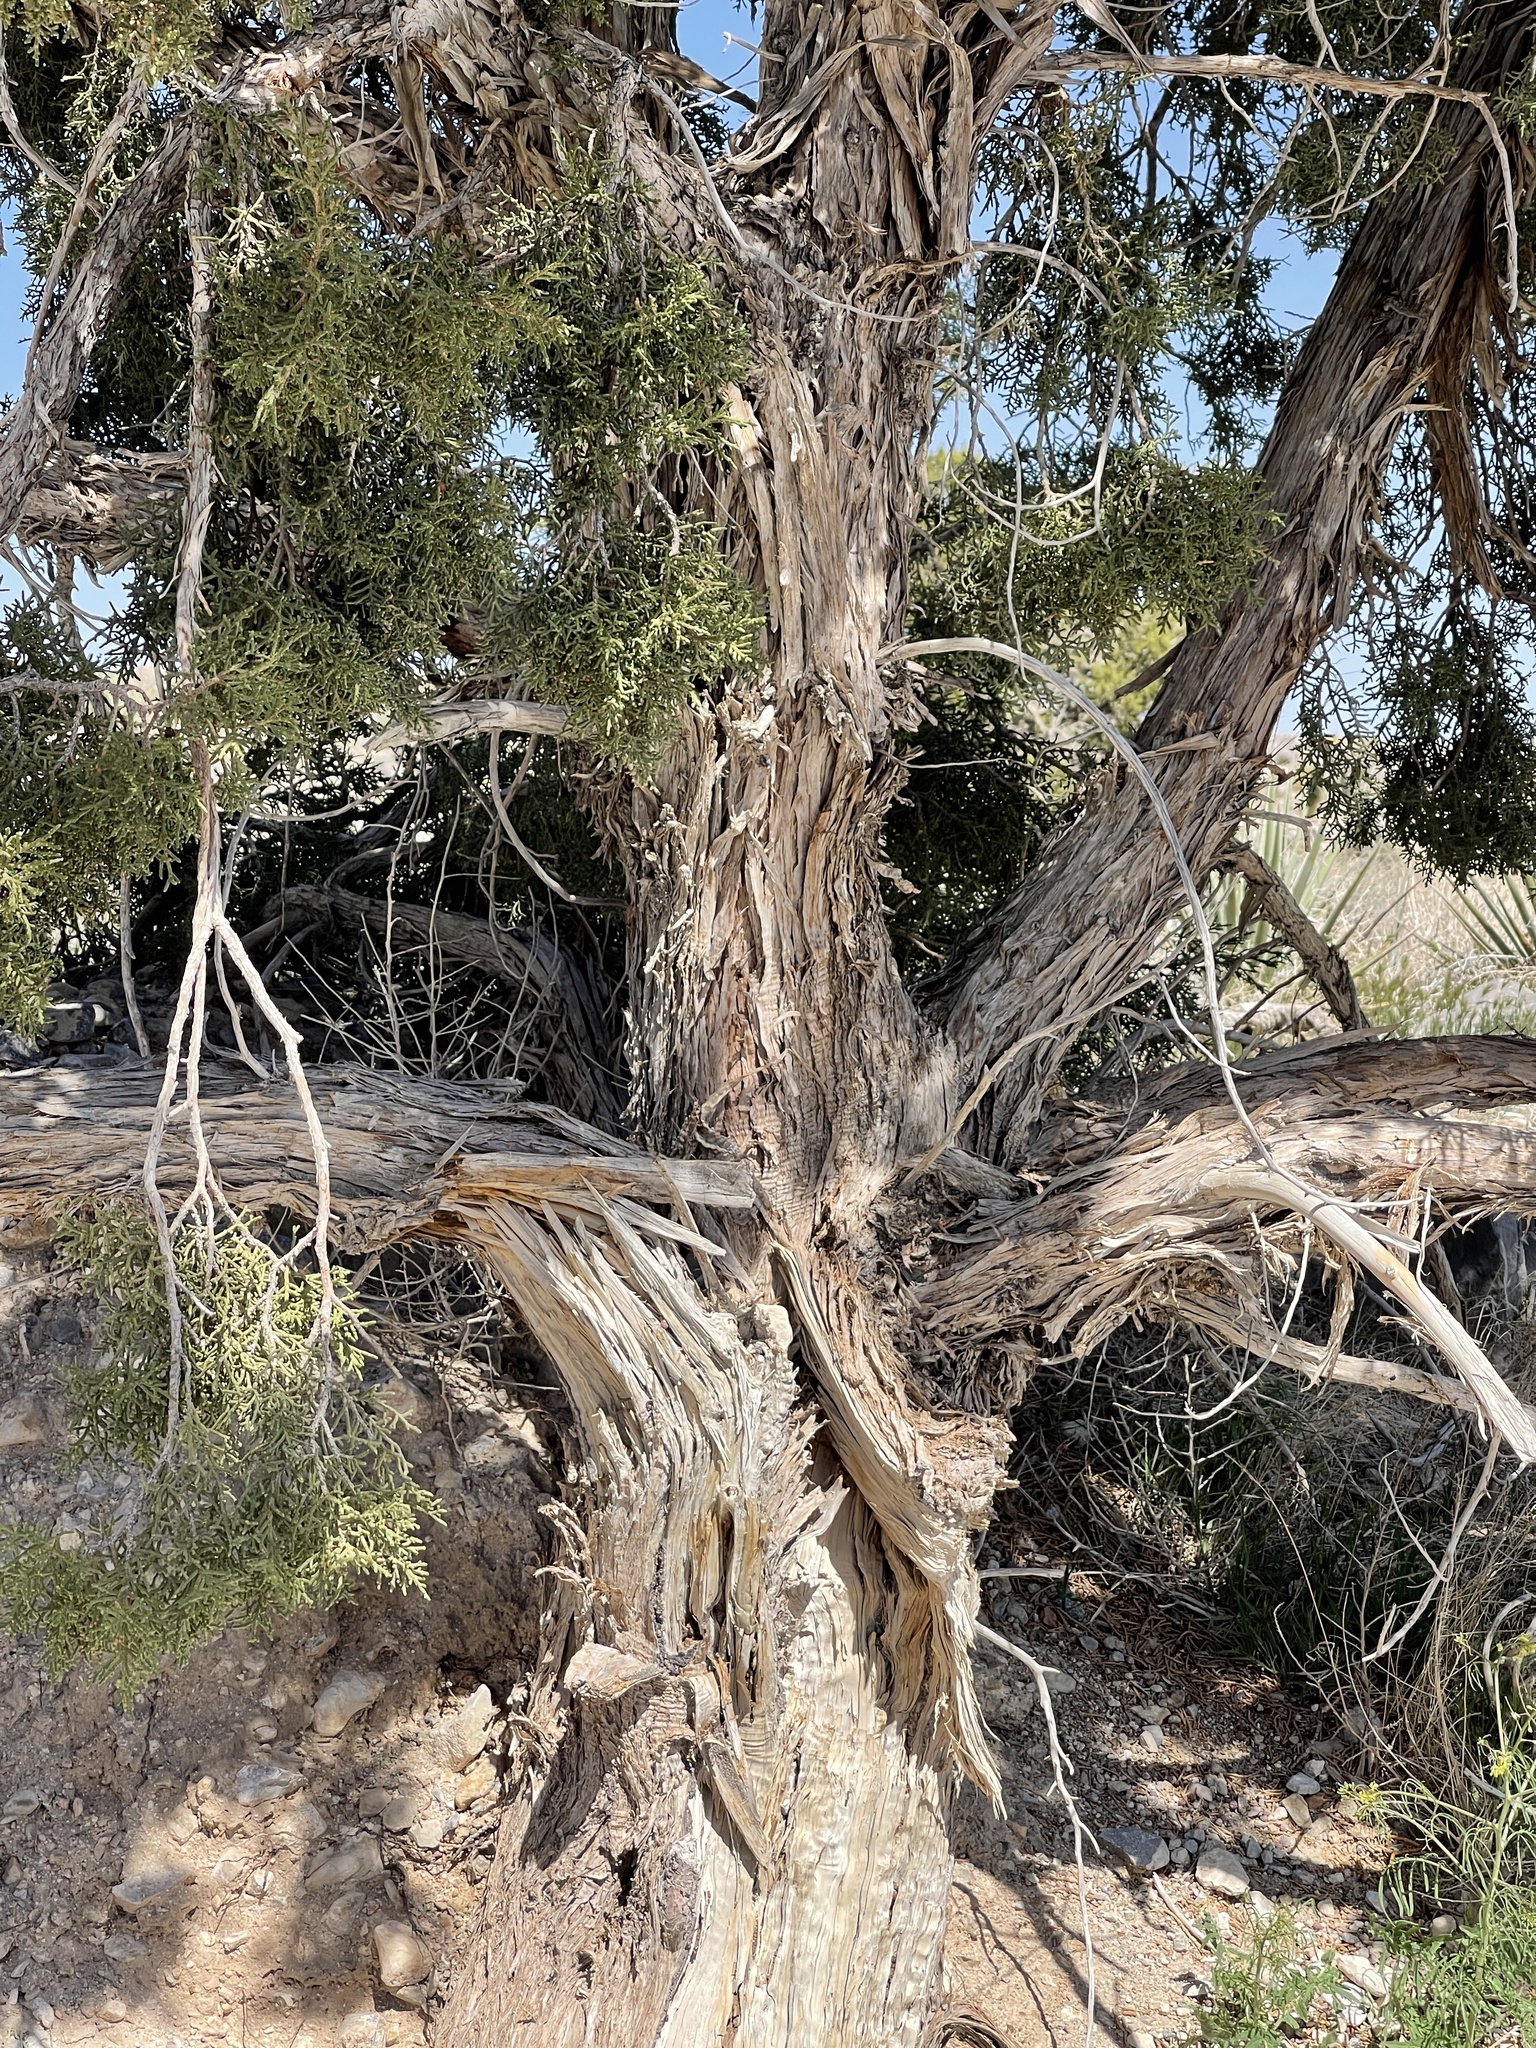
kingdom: Plantae
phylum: Tracheophyta
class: Pinopsida
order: Pinales
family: Cupressaceae
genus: Juniperus
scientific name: Juniperus osteosperma
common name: Utah juniper
